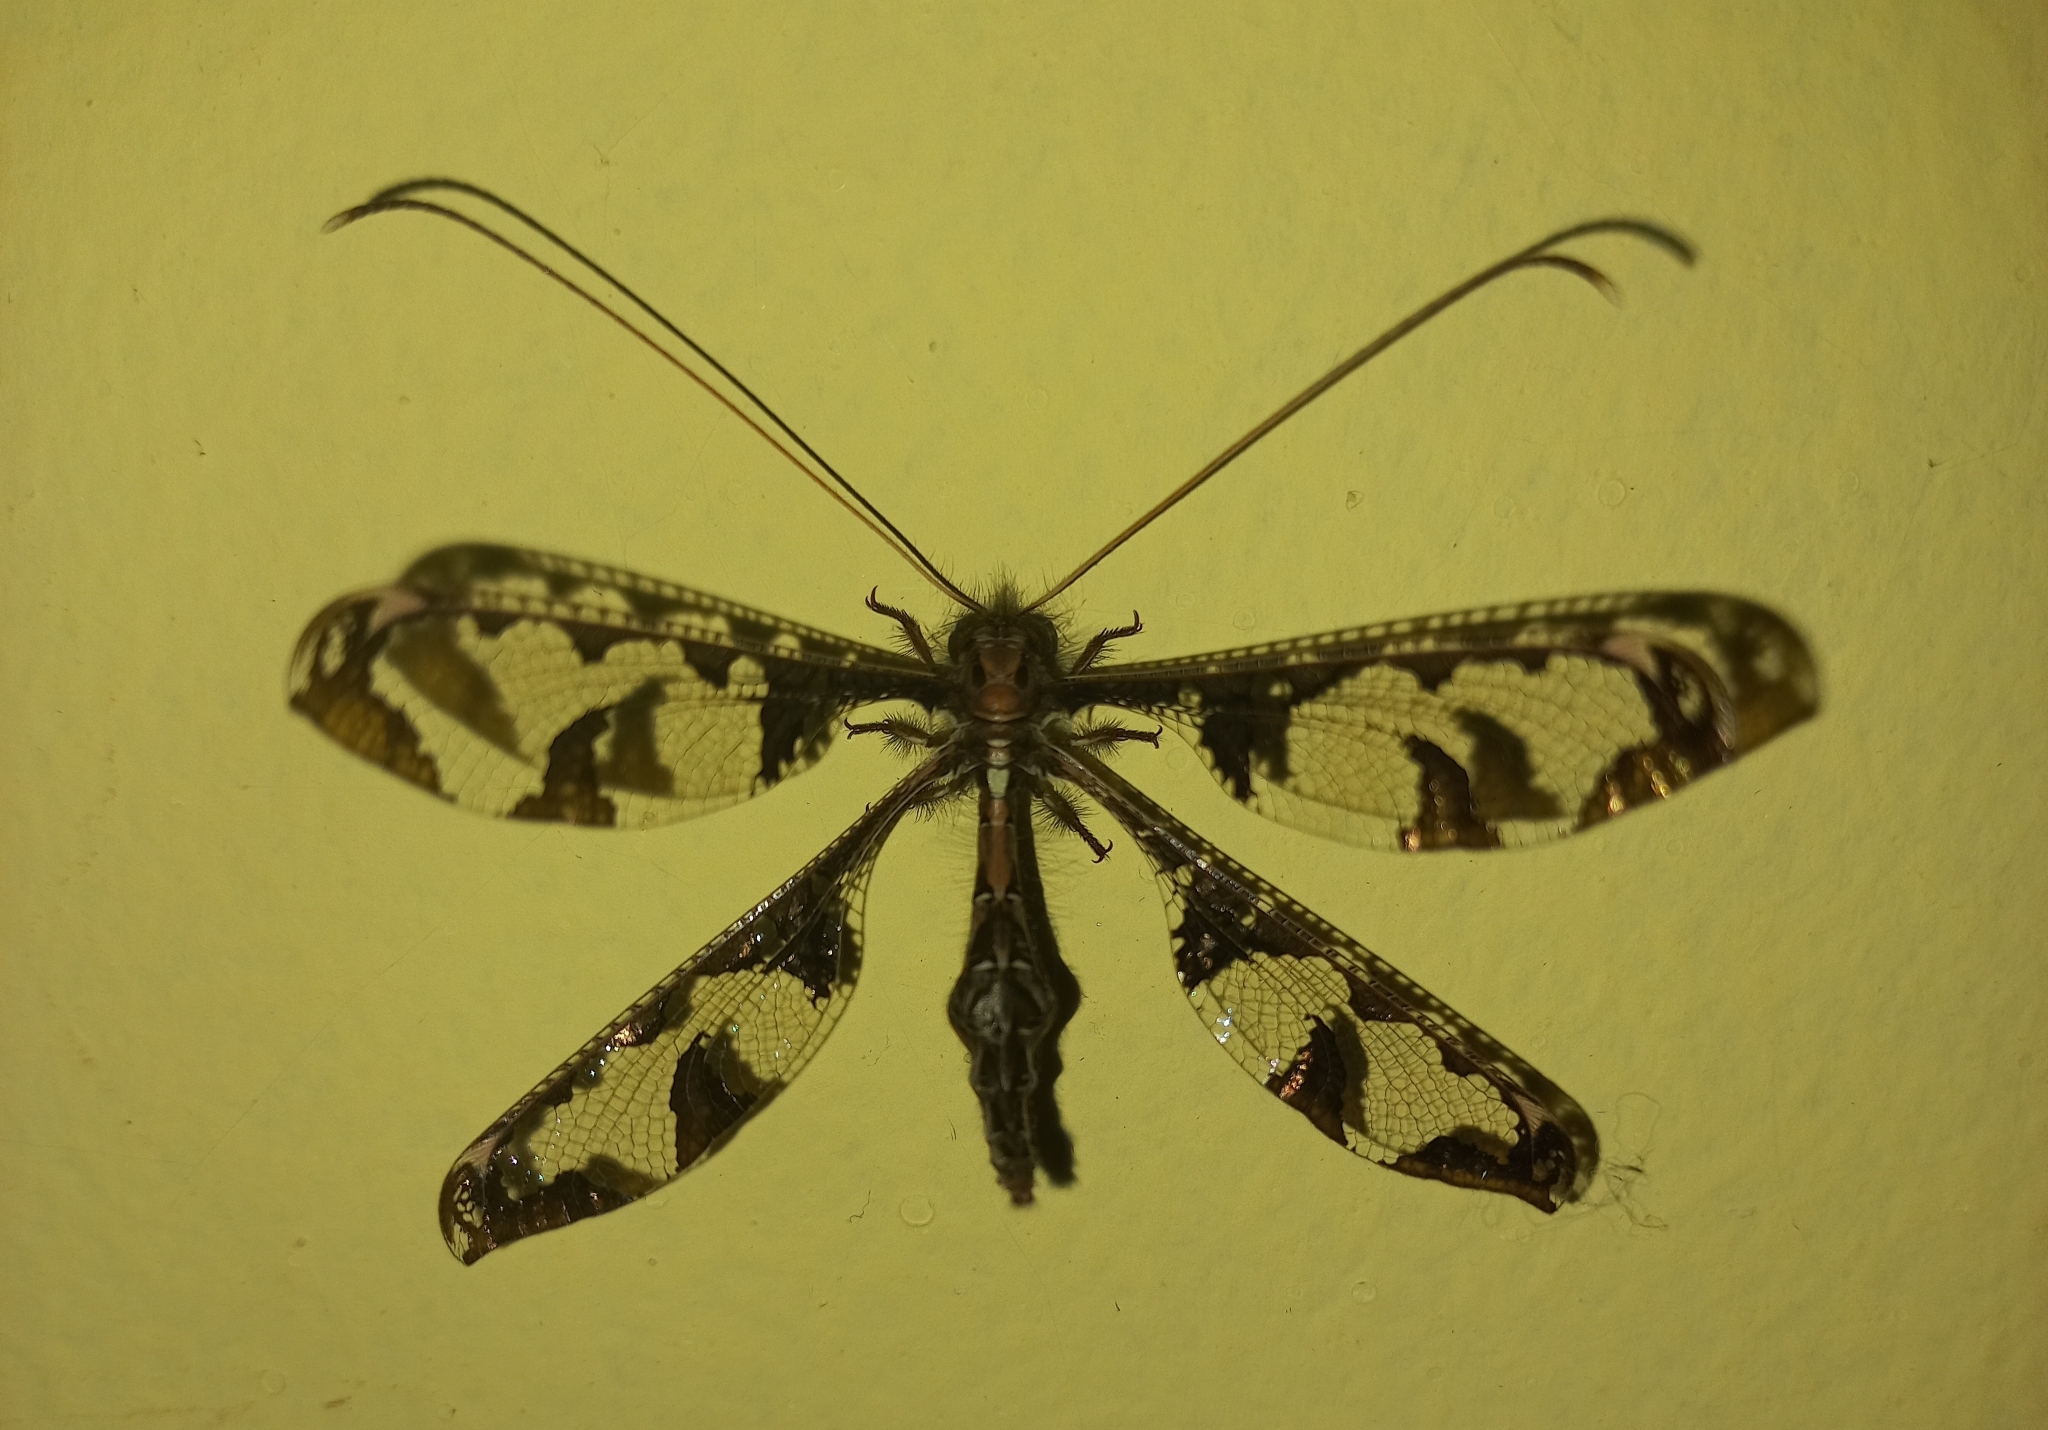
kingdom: Animalia
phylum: Arthropoda
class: Insecta
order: Neuroptera
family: Ascalaphidae
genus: Tmesibasis
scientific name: Tmesibasis lacerata
